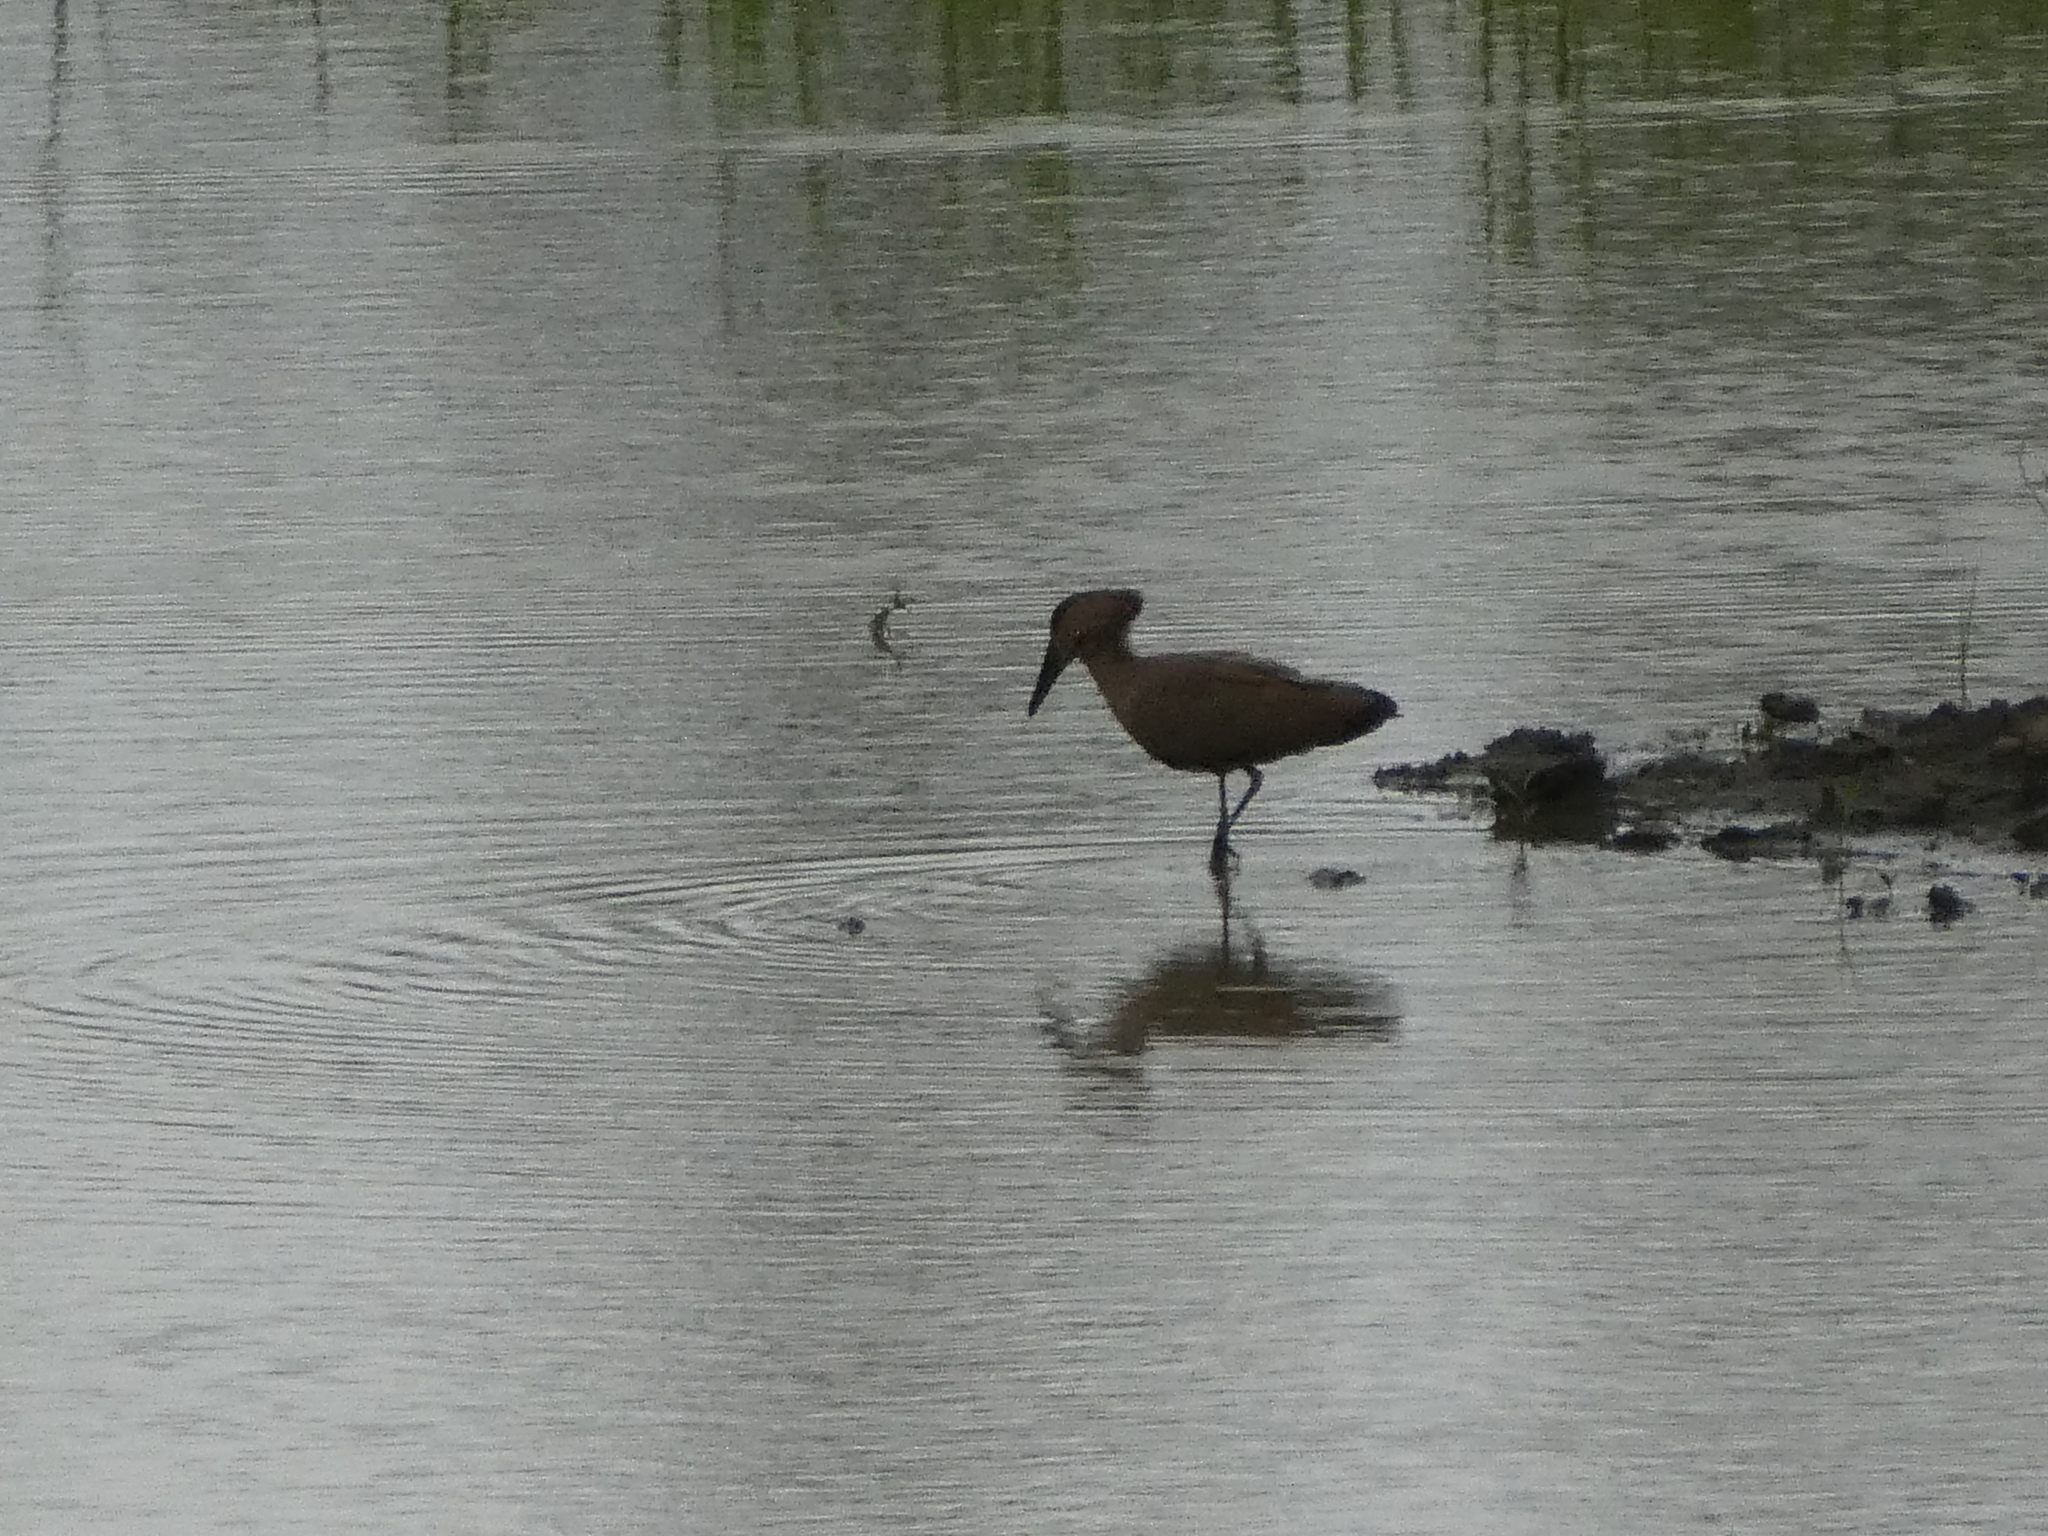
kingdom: Animalia
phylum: Chordata
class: Aves
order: Pelecaniformes
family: Scopidae
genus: Scopus
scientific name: Scopus umbretta
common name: Hamerkop
